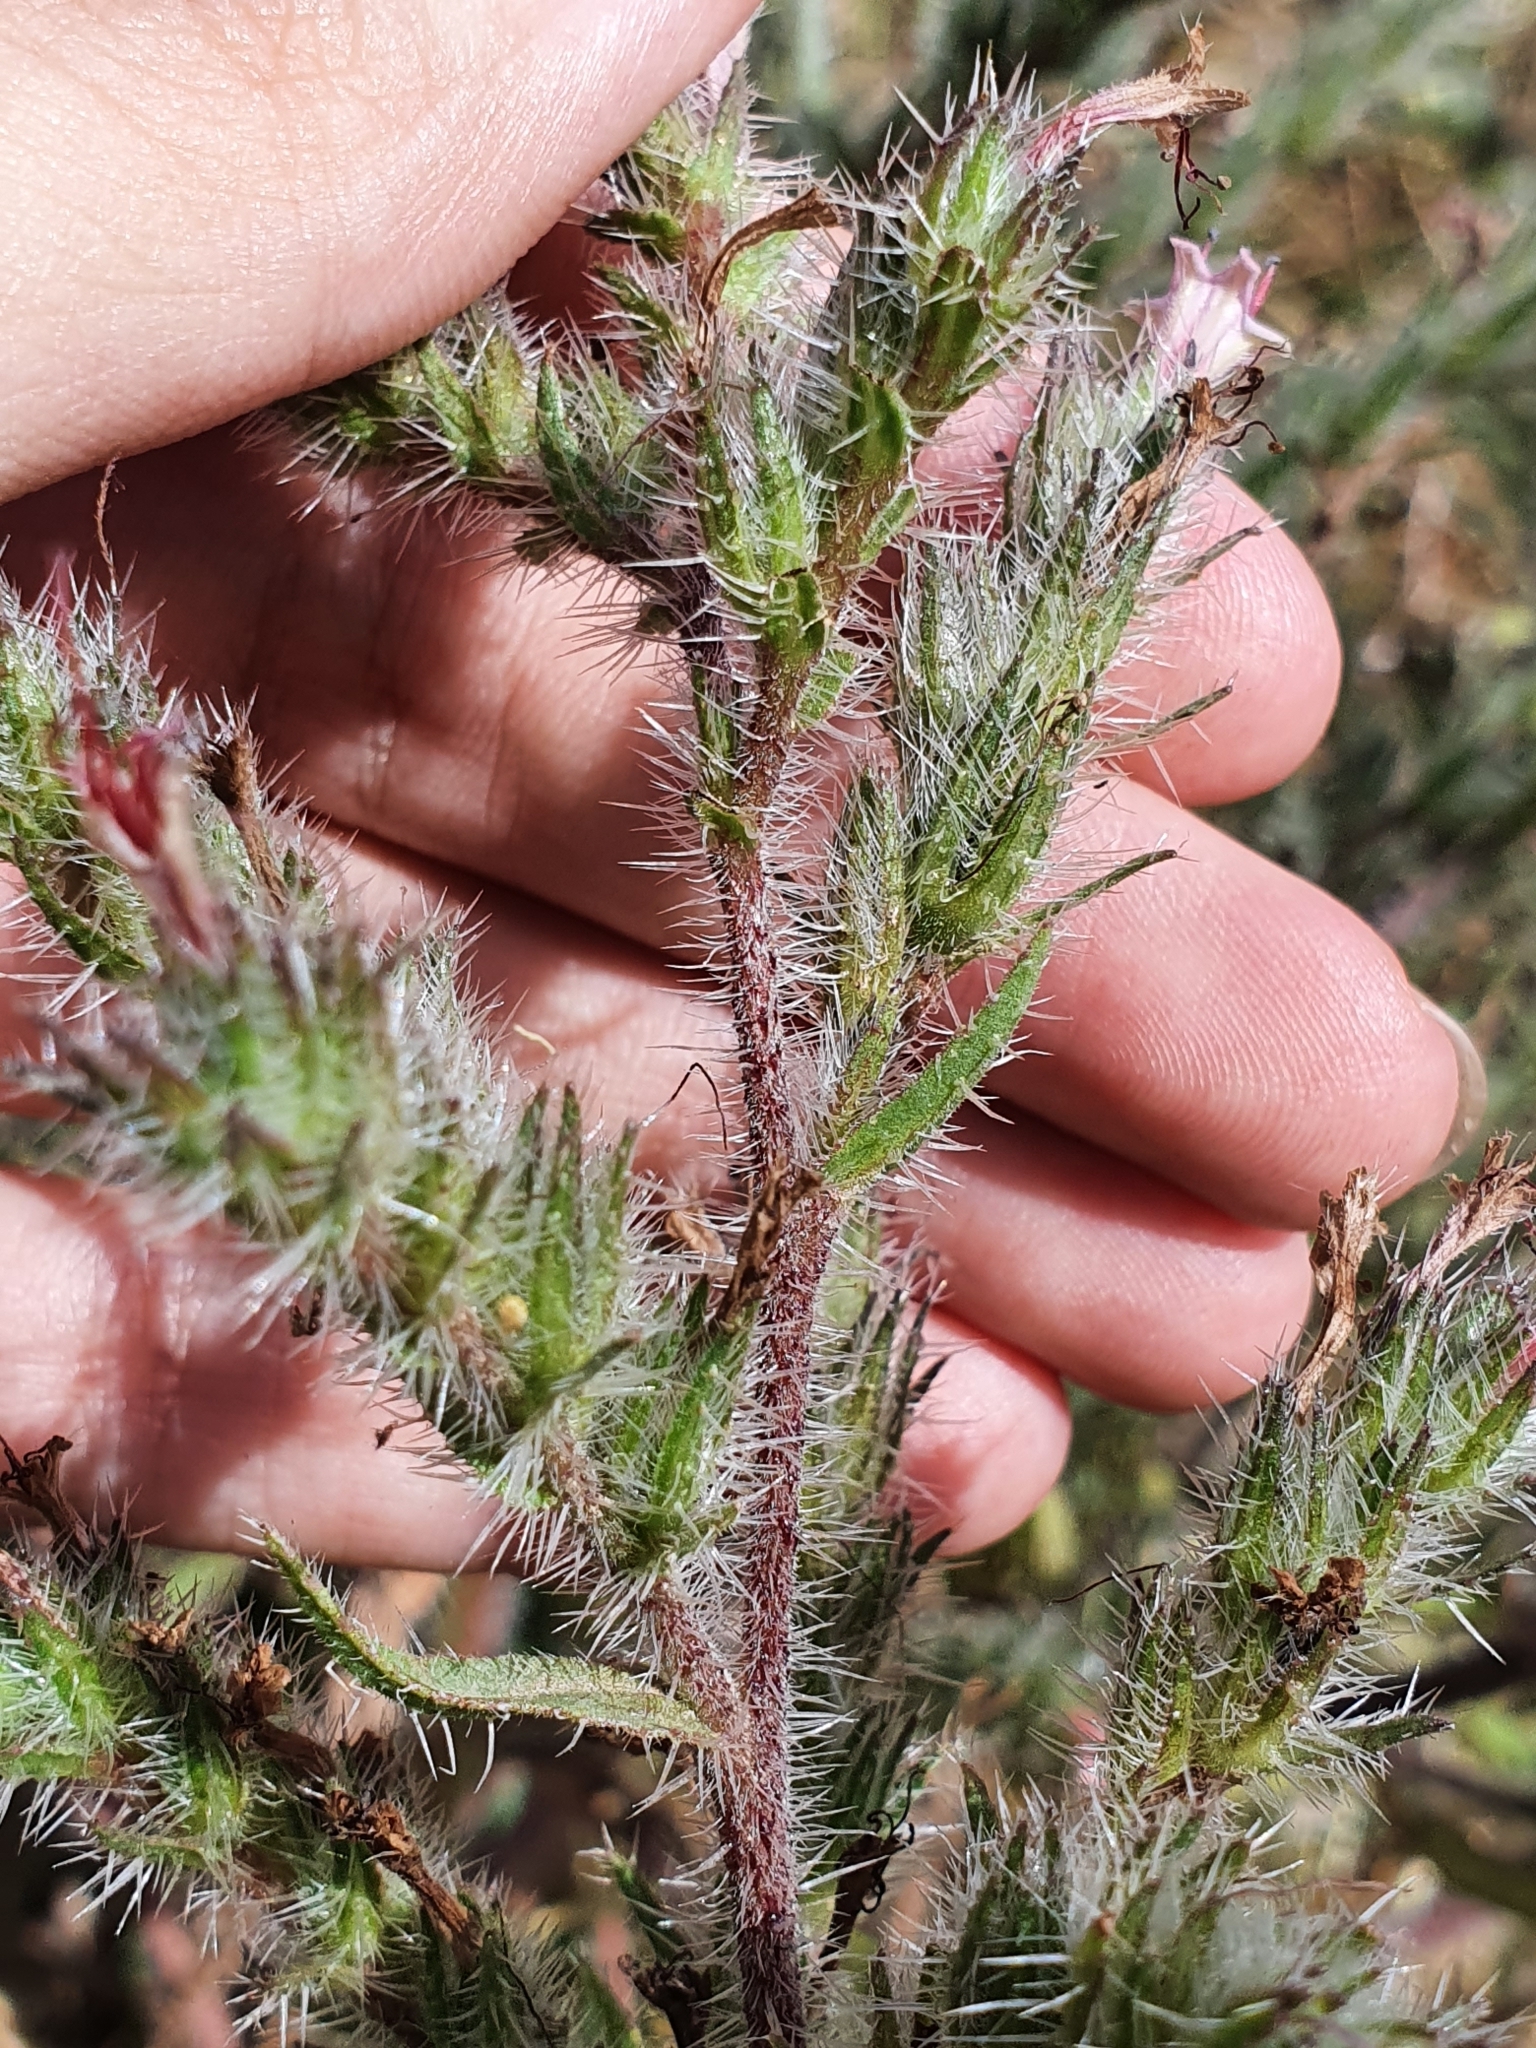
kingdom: Plantae
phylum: Tracheophyta
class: Magnoliopsida
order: Boraginales
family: Boraginaceae
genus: Echium
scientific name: Echium asperrimum
